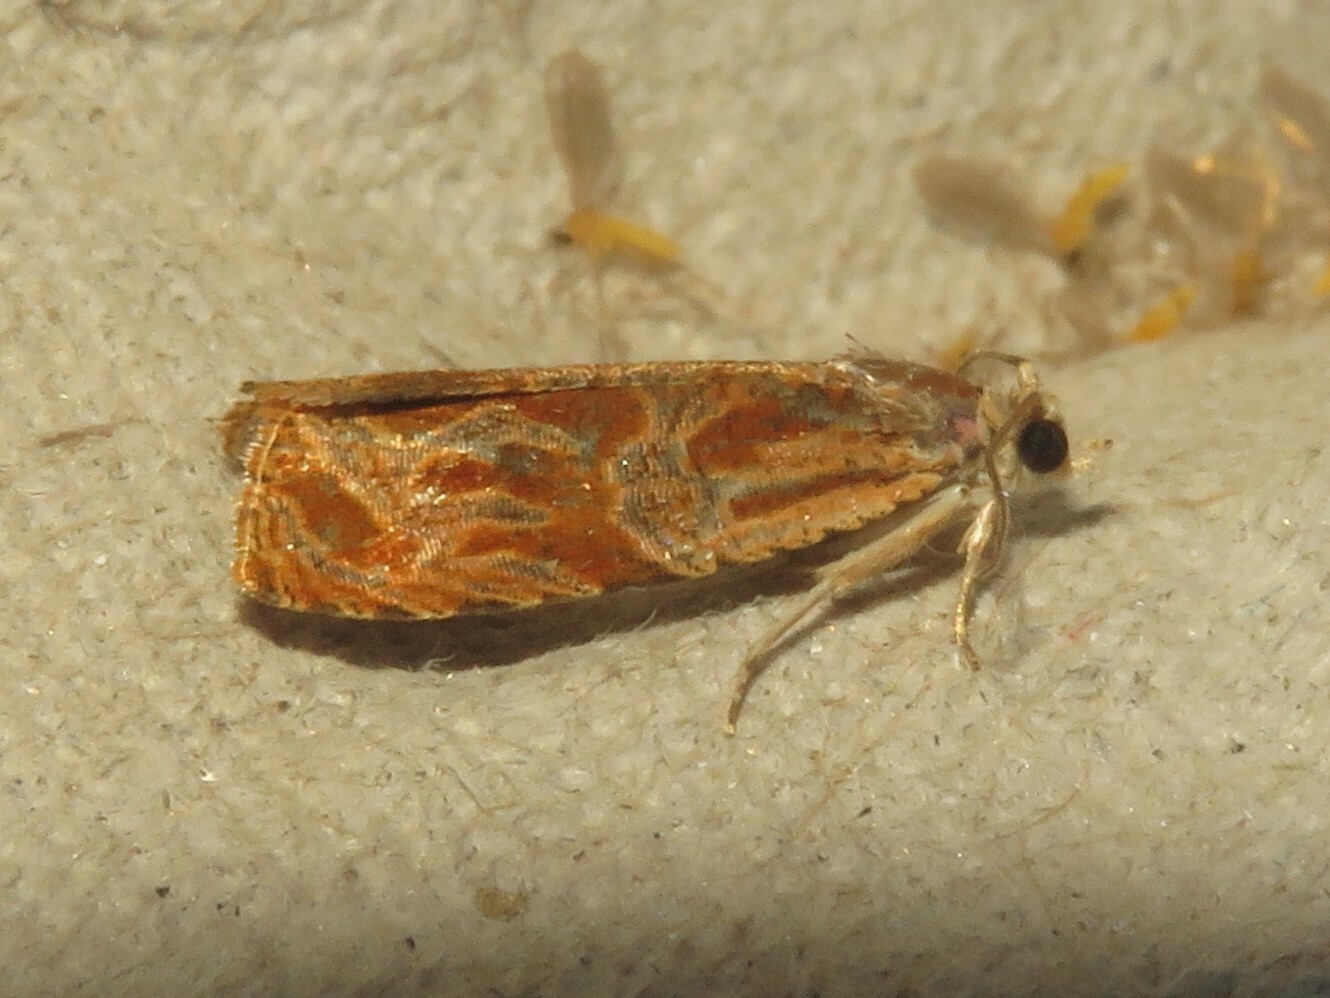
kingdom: Animalia
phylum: Arthropoda
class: Insecta
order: Lepidoptera
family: Tortricidae
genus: Olethreutes
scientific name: Olethreutes nitidana
